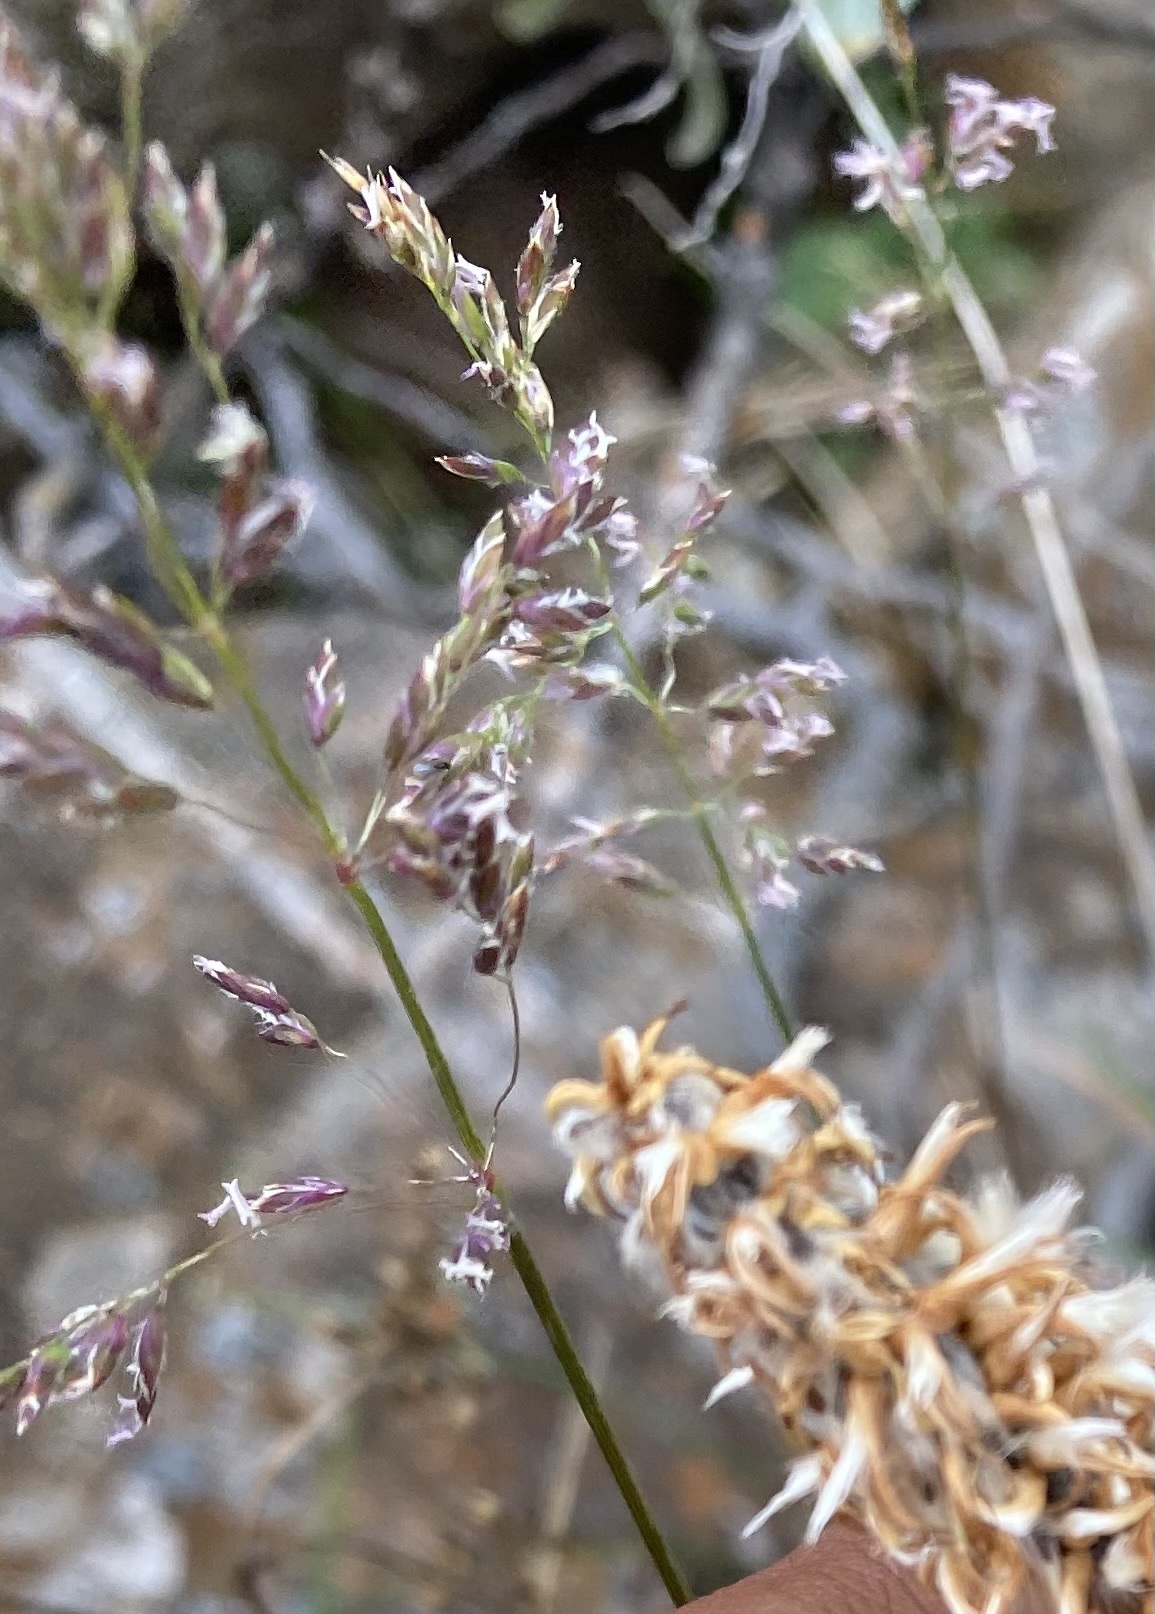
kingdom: Plantae
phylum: Tracheophyta
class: Liliopsida
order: Poales
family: Poaceae
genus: Poa
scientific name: Poa
